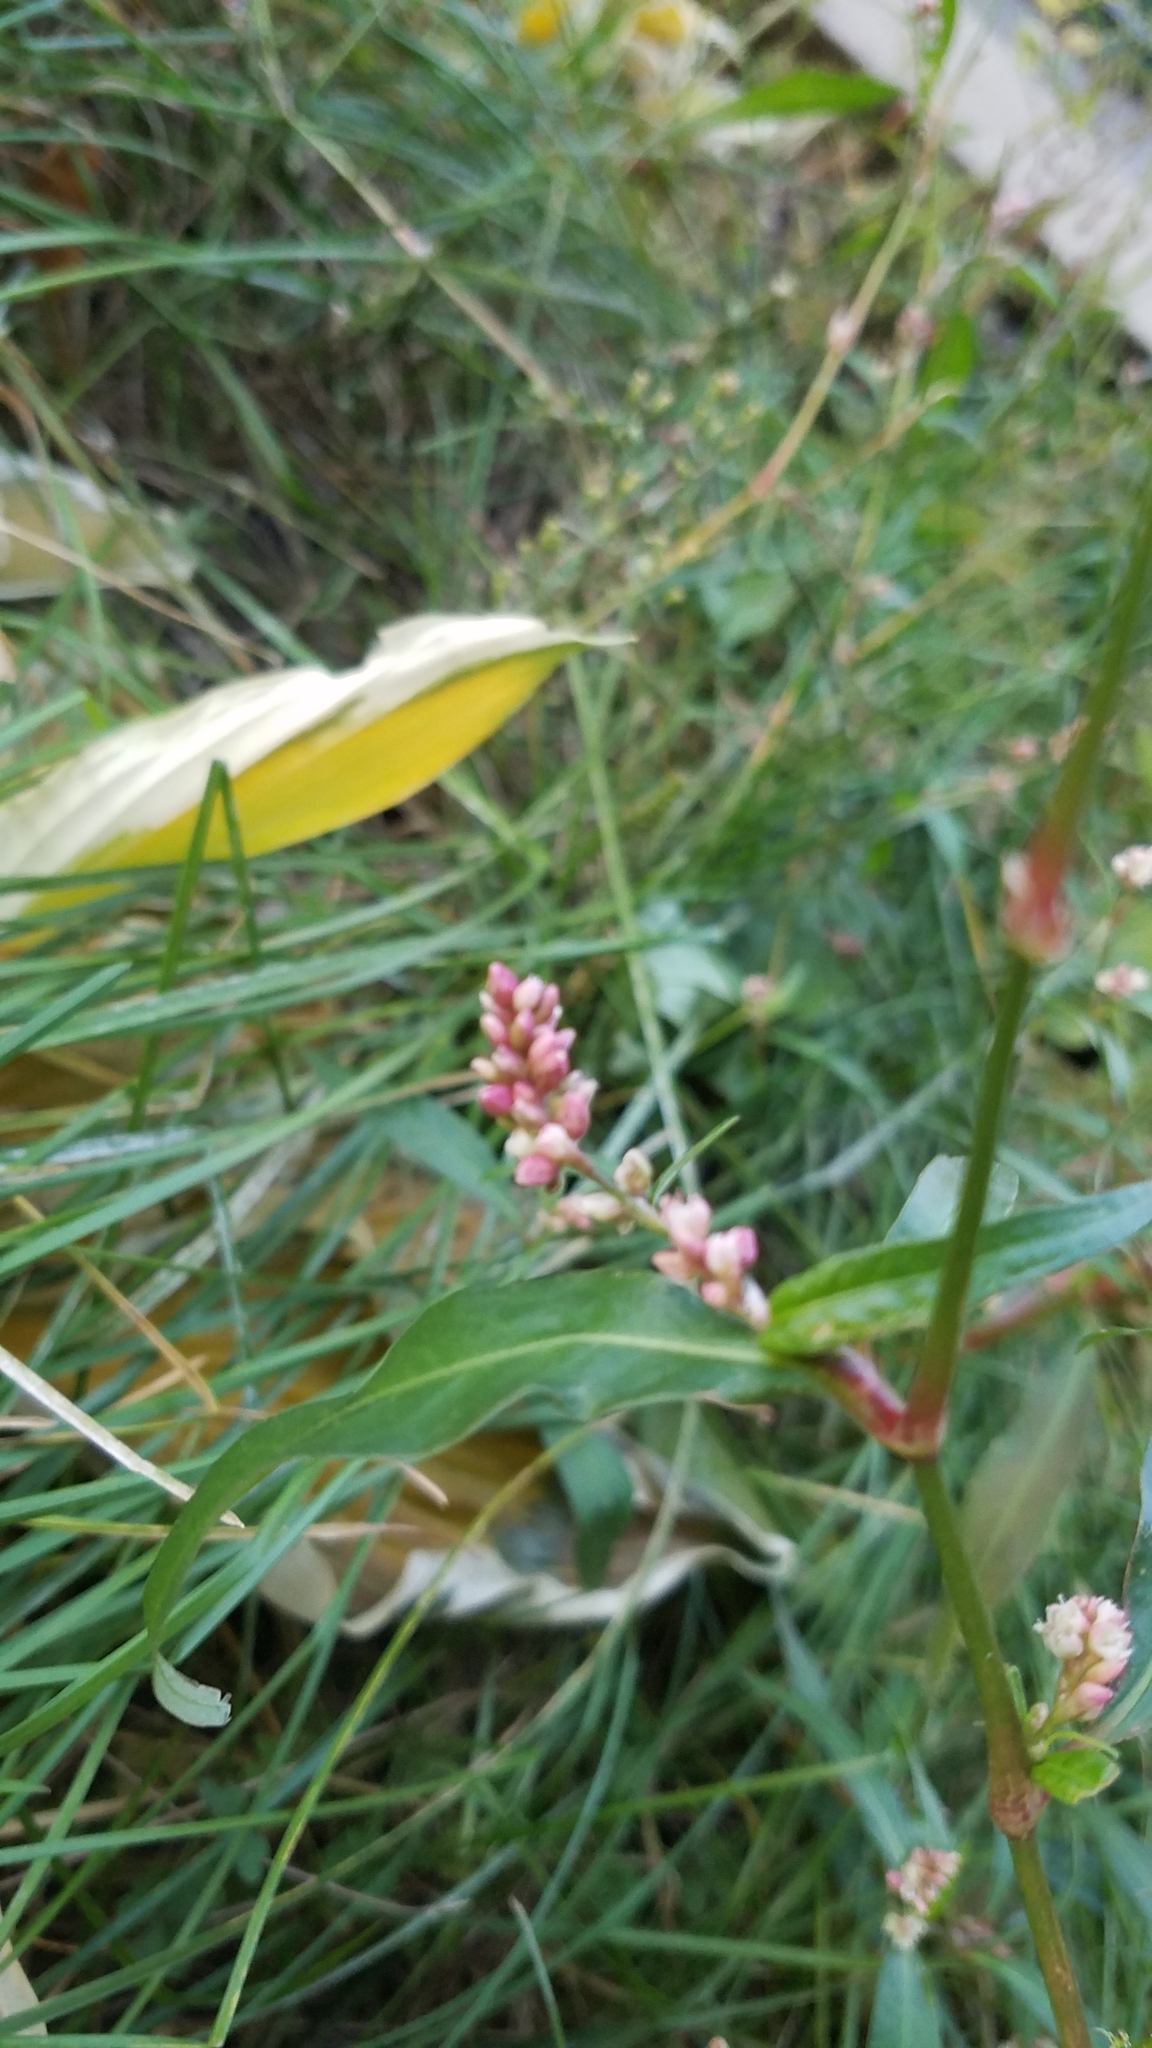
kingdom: Plantae
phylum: Tracheophyta
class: Magnoliopsida
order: Caryophyllales
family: Polygonaceae
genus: Persicaria
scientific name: Persicaria maculosa
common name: Redshank
